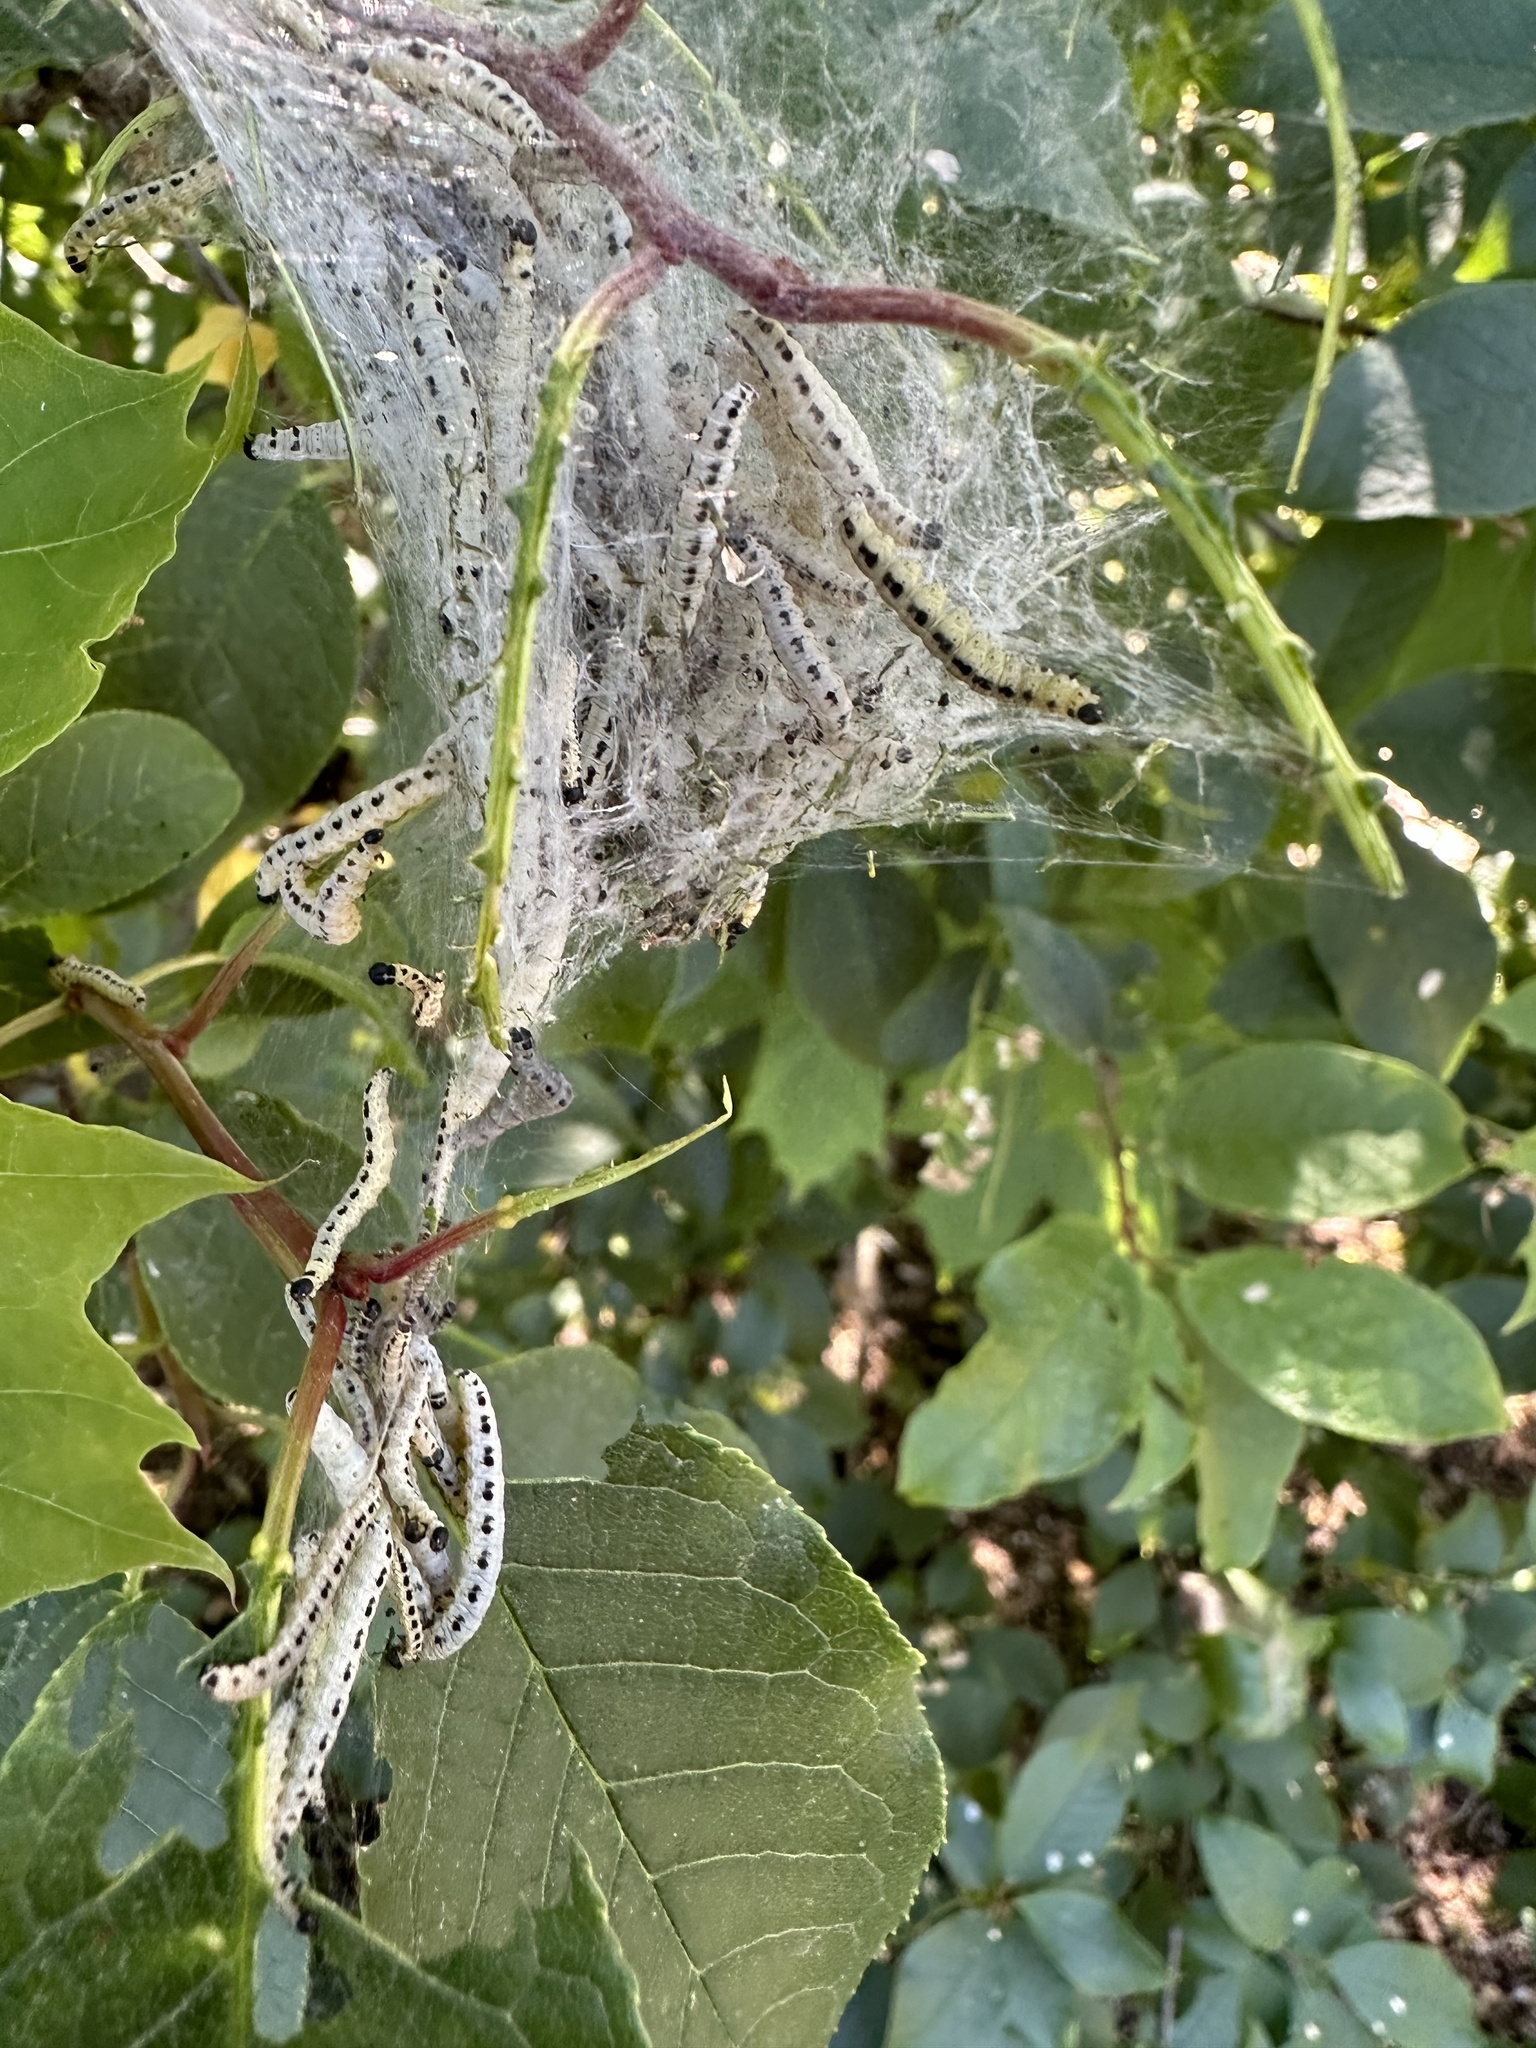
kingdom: Animalia
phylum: Arthropoda
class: Insecta
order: Lepidoptera
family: Yponomeutidae
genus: Yponomeuta
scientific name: Yponomeuta evonymella
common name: Bird-cherry ermine
